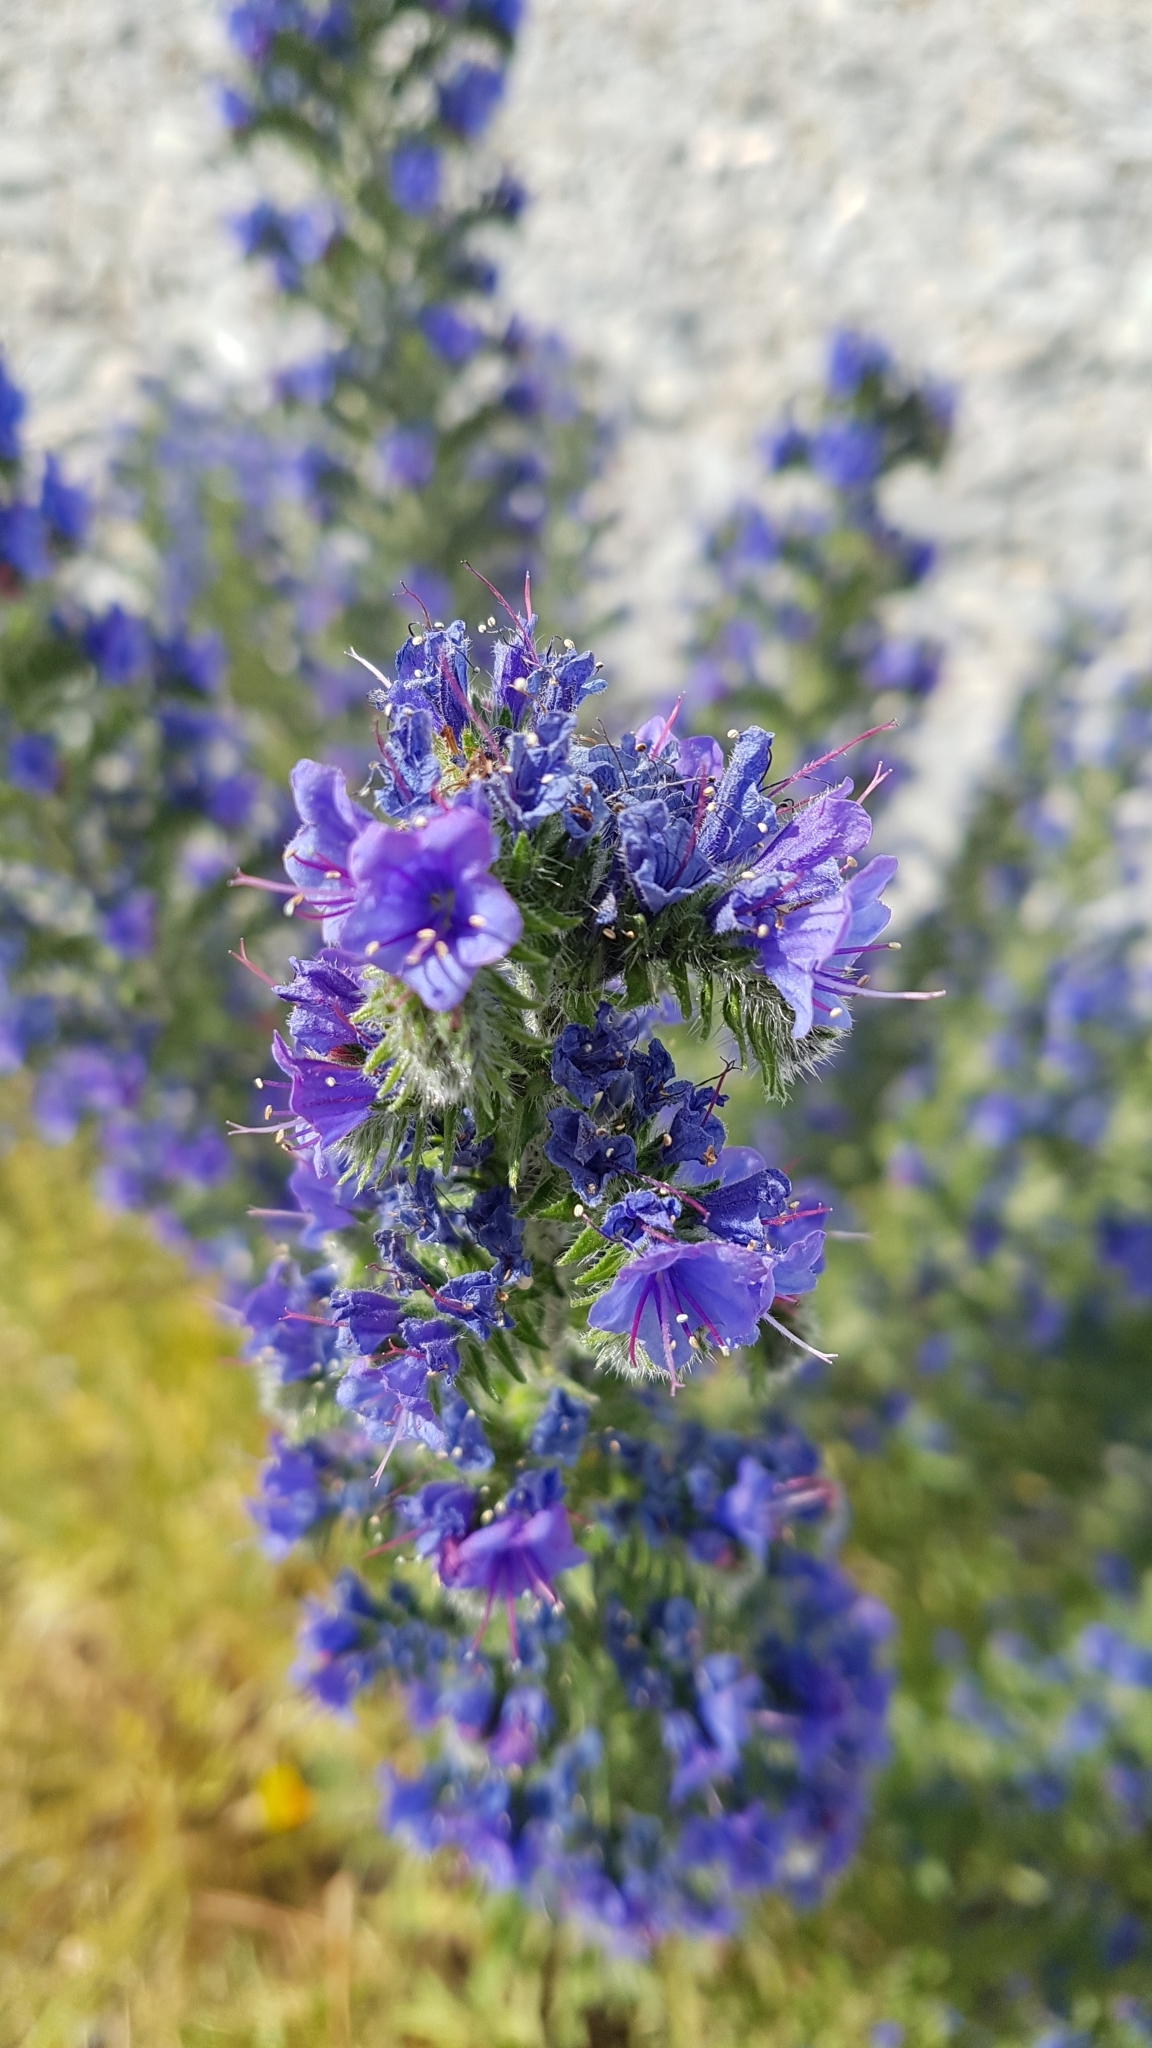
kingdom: Plantae
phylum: Tracheophyta
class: Magnoliopsida
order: Boraginales
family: Boraginaceae
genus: Echium
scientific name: Echium vulgare
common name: Common viper's bugloss
